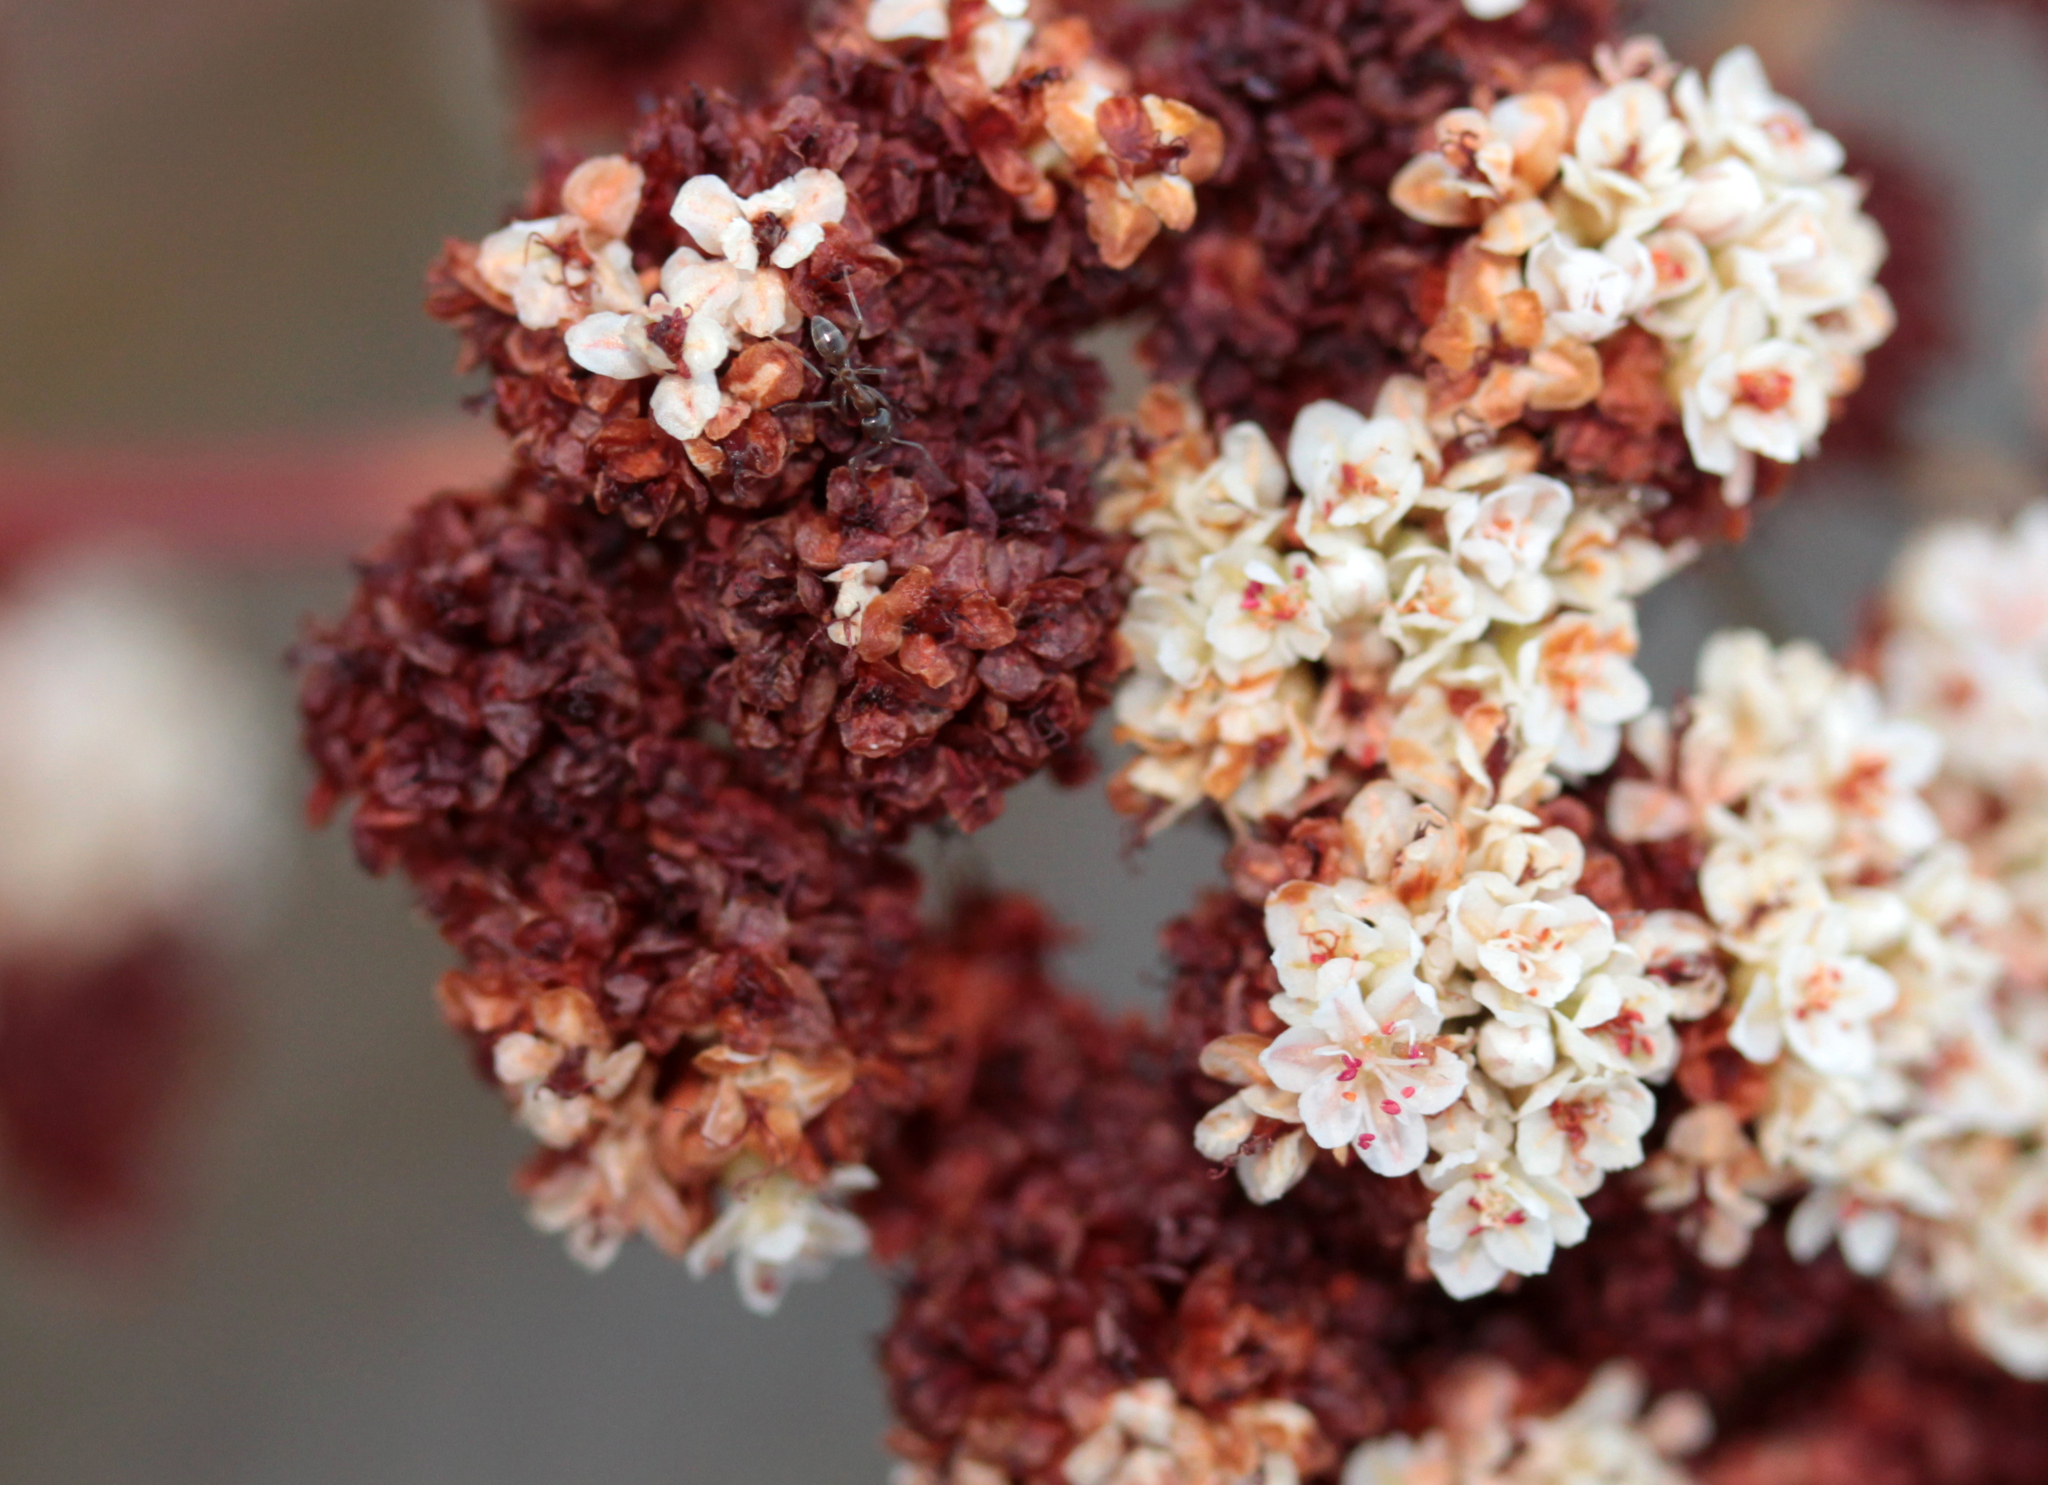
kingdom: Plantae
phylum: Tracheophyta
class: Magnoliopsida
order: Caryophyllales
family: Polygonaceae
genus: Eriogonum
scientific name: Eriogonum fasciculatum
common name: California wild buckwheat
